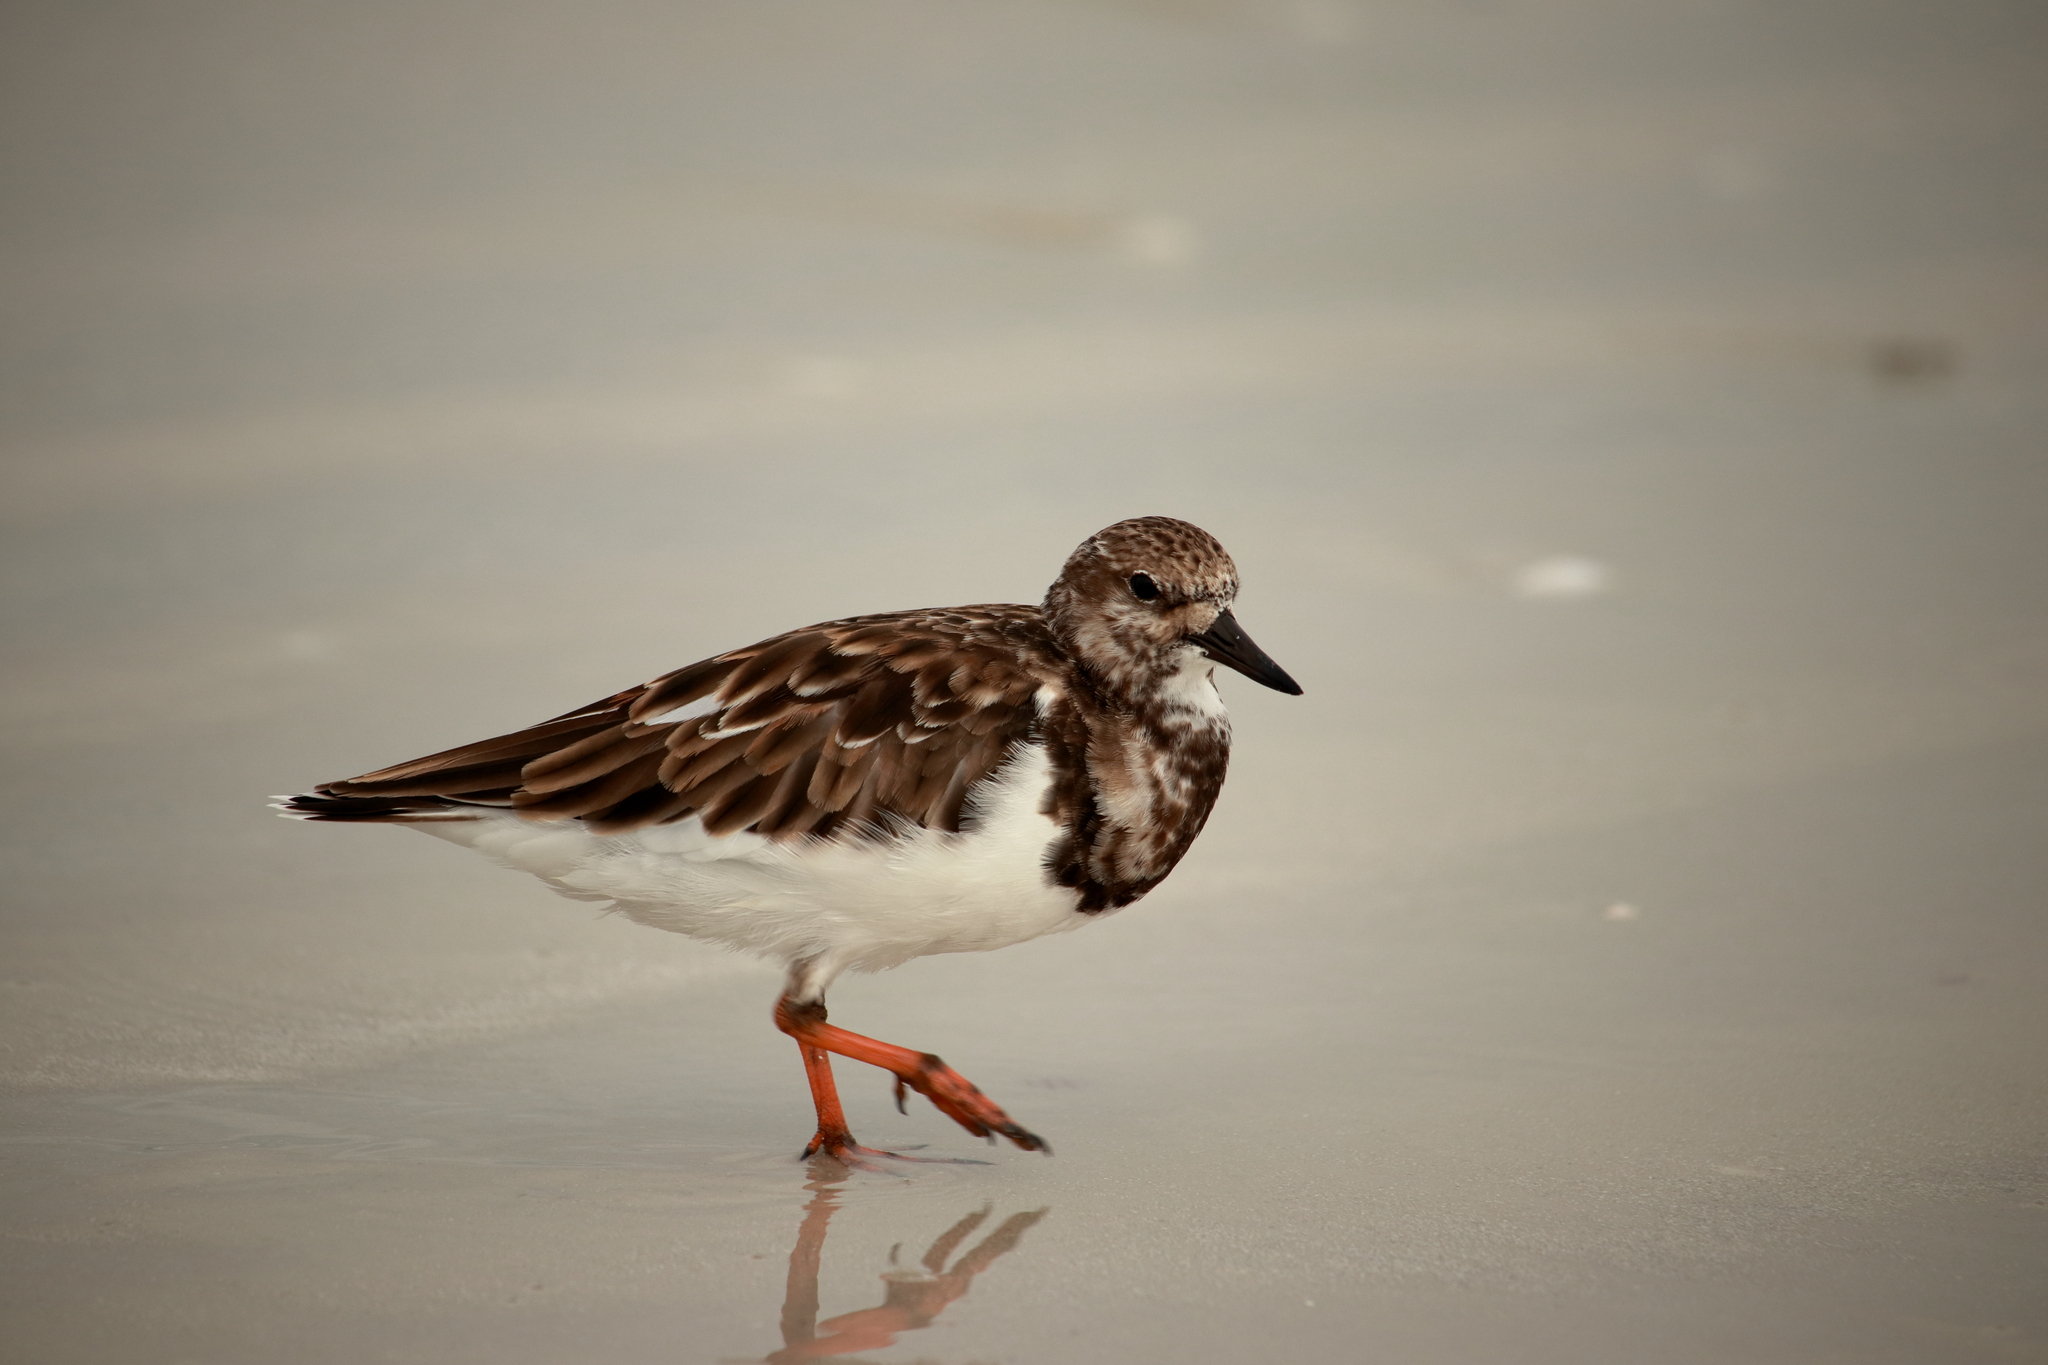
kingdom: Animalia
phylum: Chordata
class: Aves
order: Charadriiformes
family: Scolopacidae
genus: Arenaria
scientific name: Arenaria interpres
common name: Ruddy turnstone
